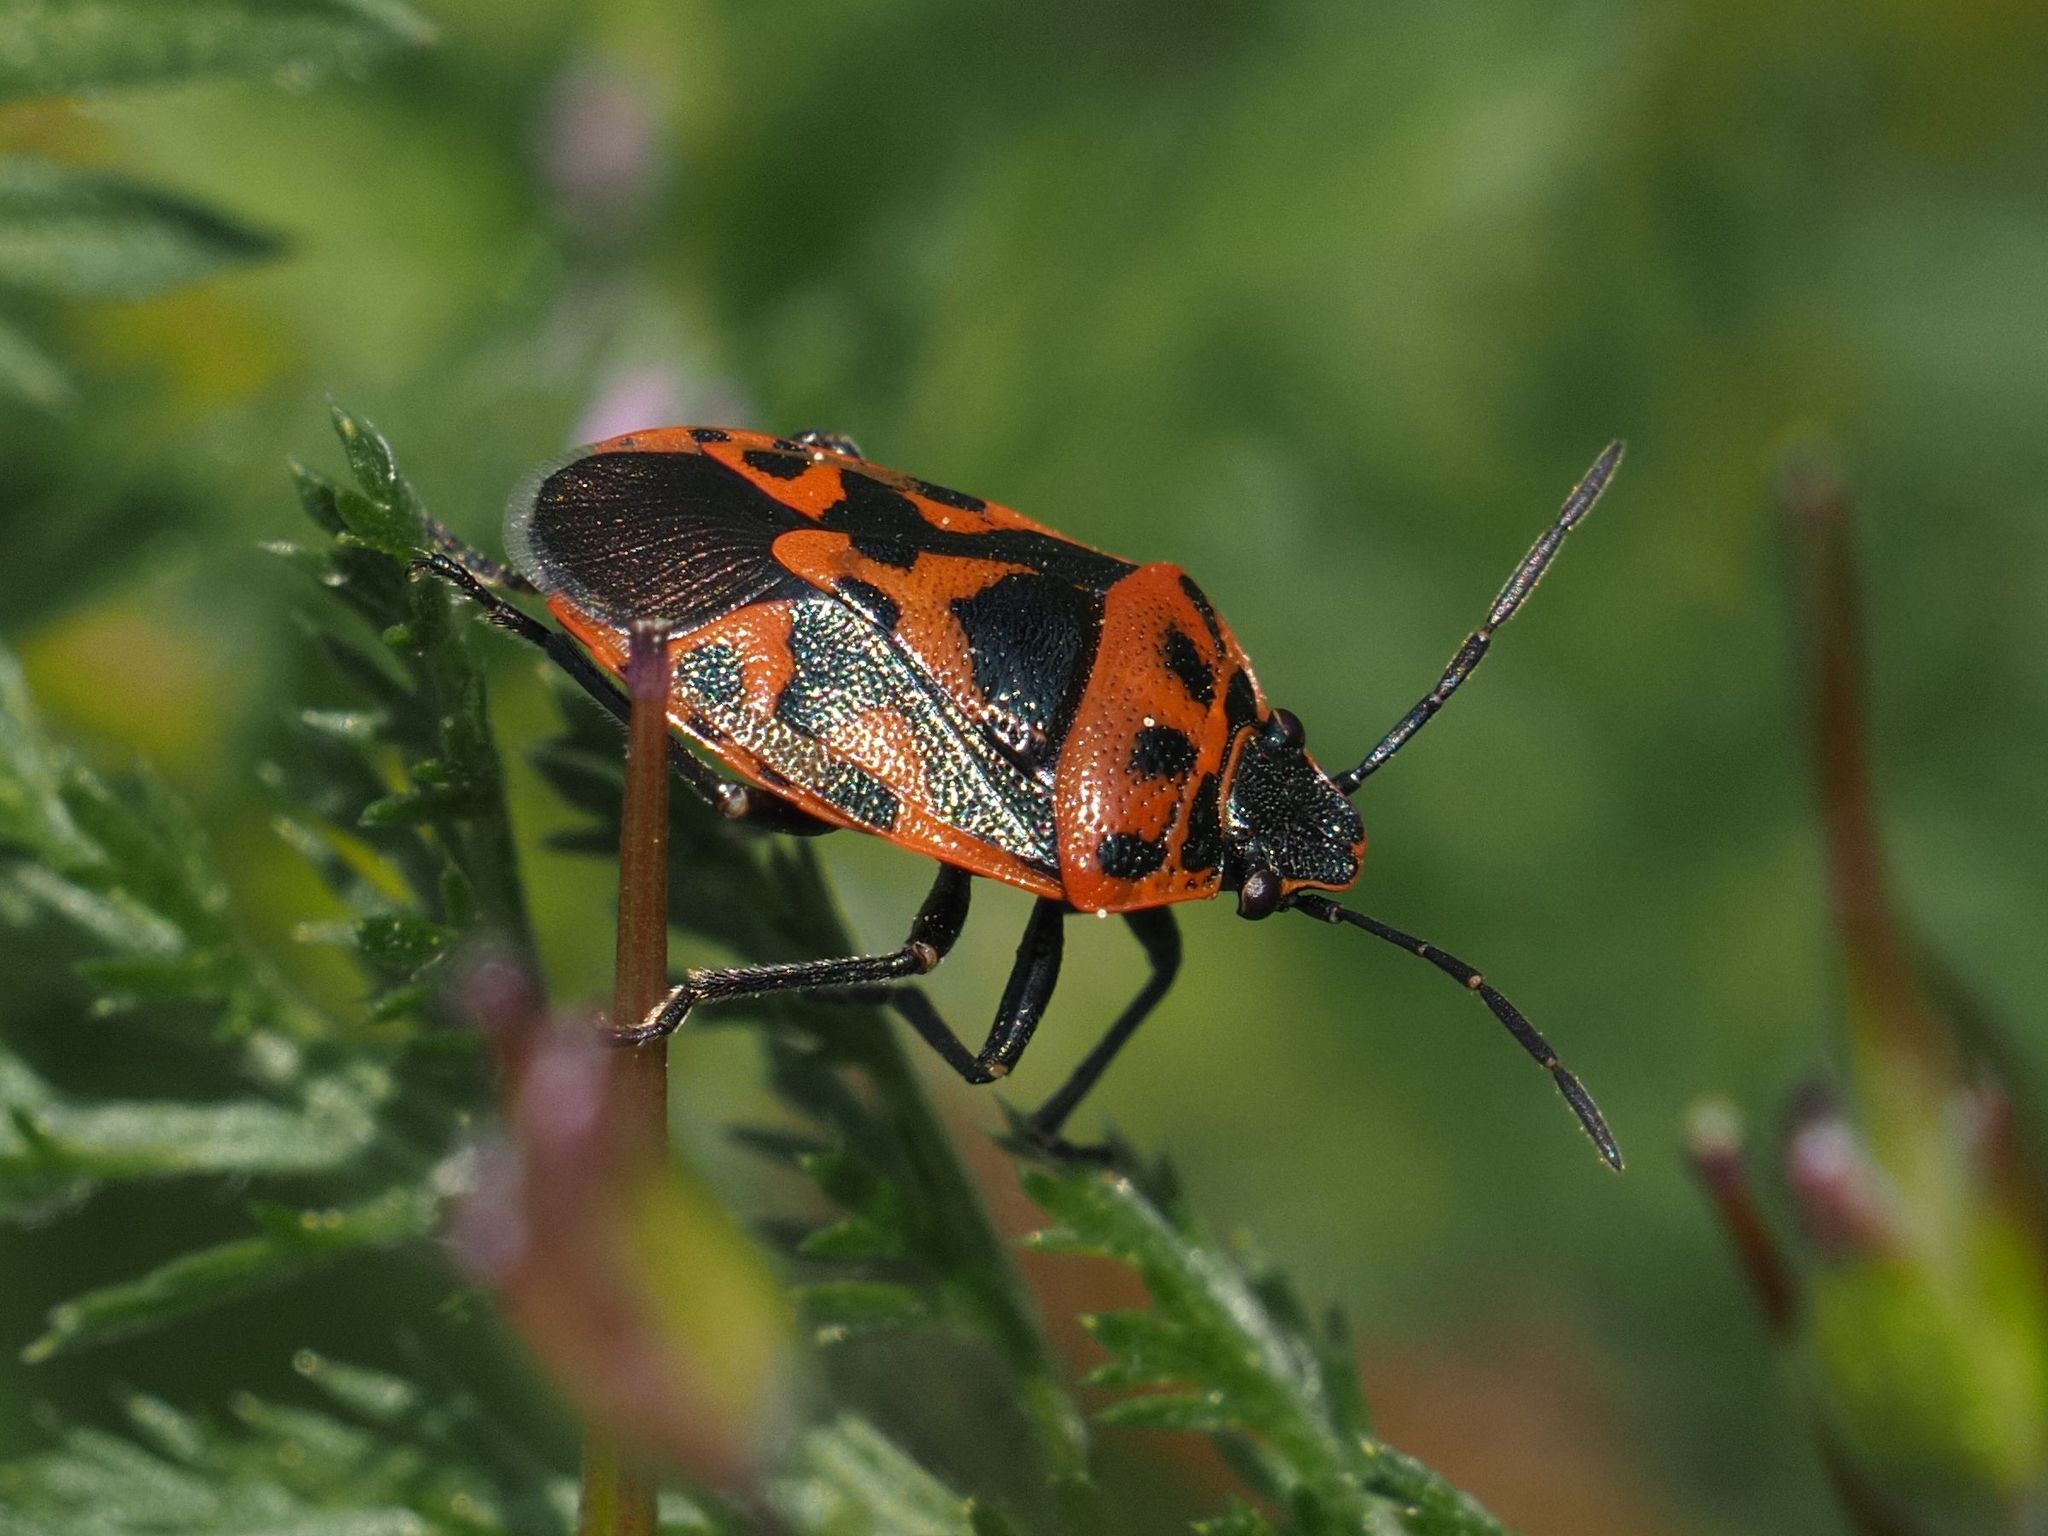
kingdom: Animalia
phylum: Arthropoda
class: Insecta
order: Hemiptera
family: Pentatomidae
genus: Eurydema
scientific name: Eurydema ornata
